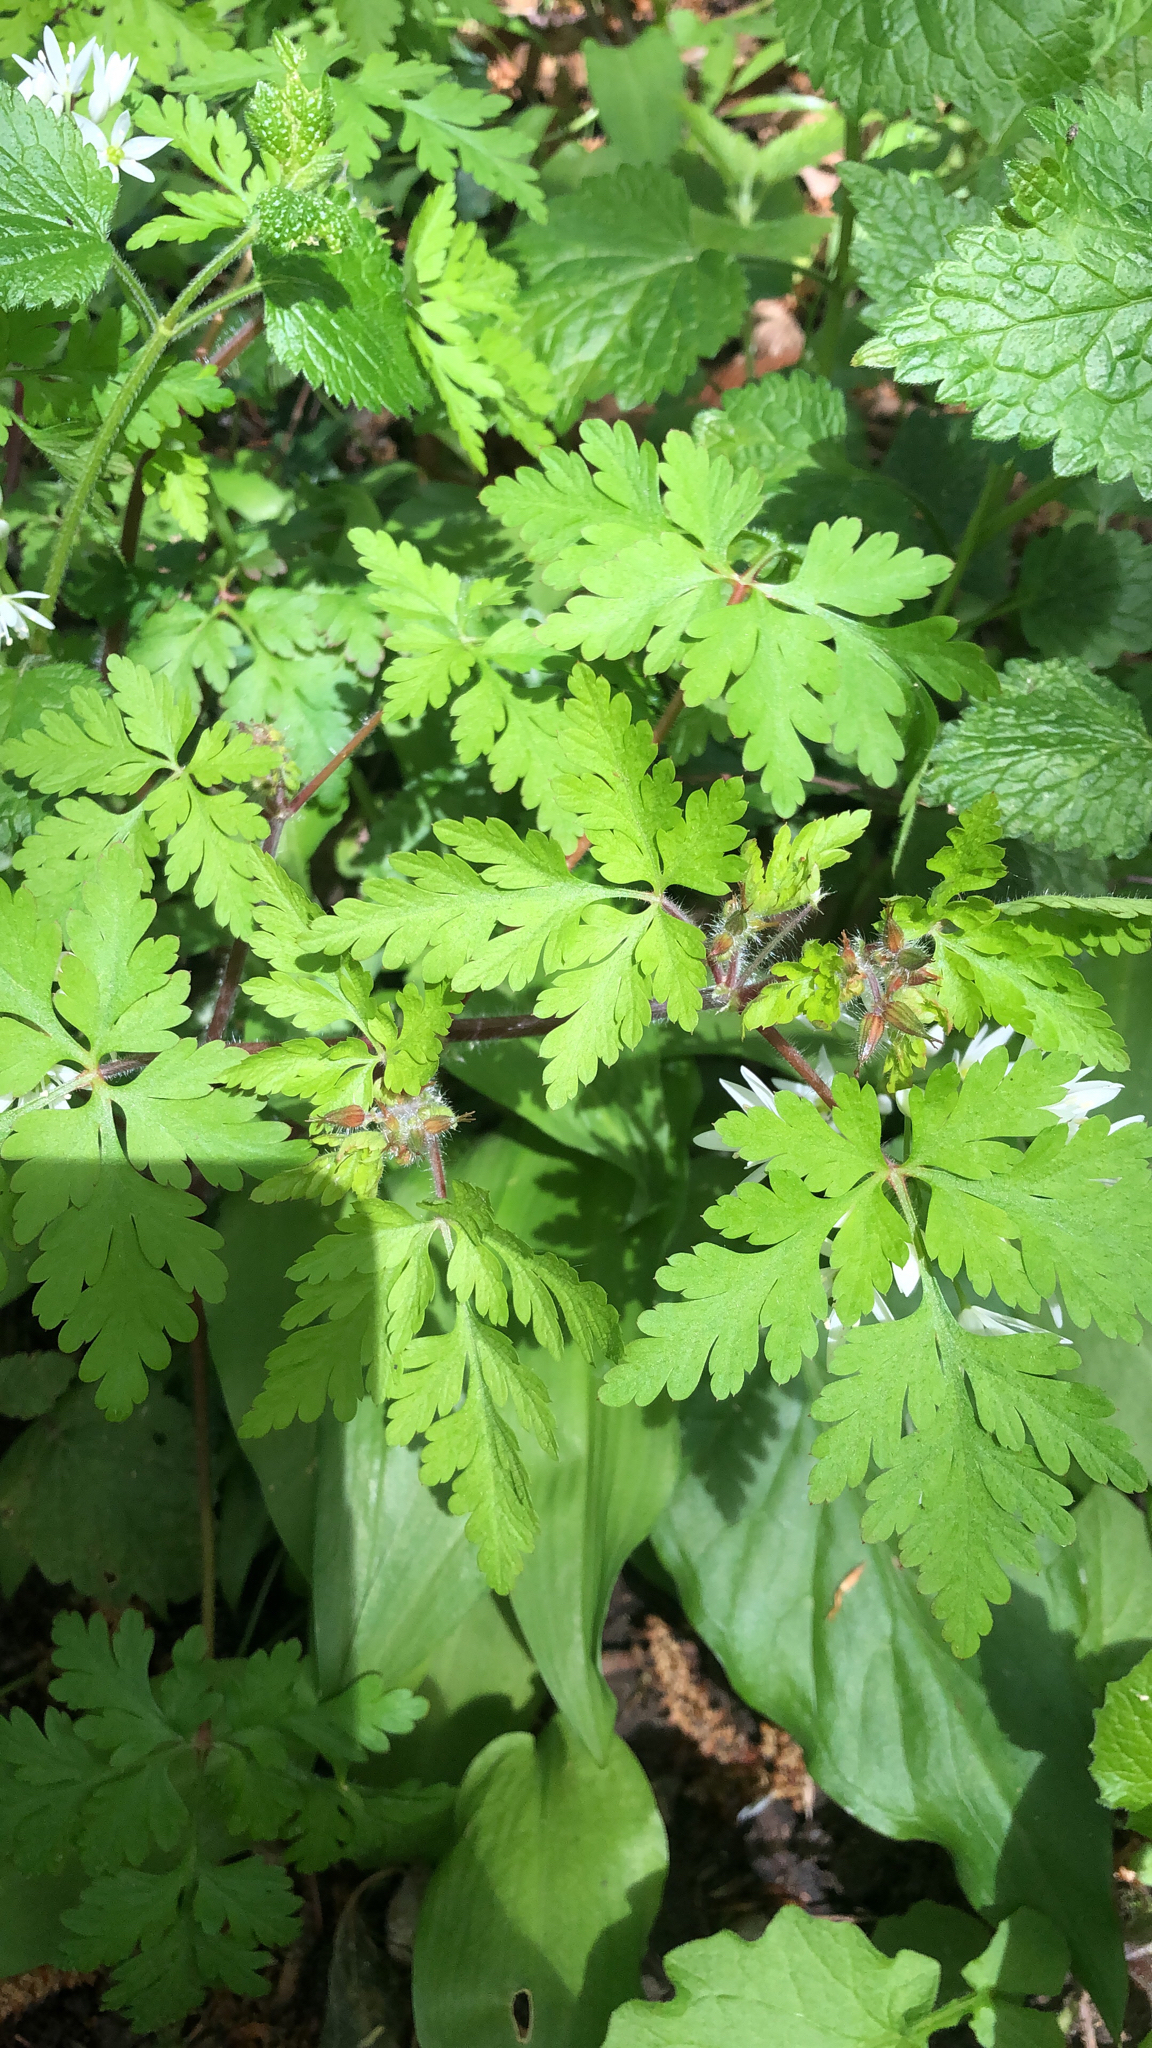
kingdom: Plantae
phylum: Tracheophyta
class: Magnoliopsida
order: Geraniales
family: Geraniaceae
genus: Geranium
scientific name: Geranium robertianum
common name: Herb-robert
